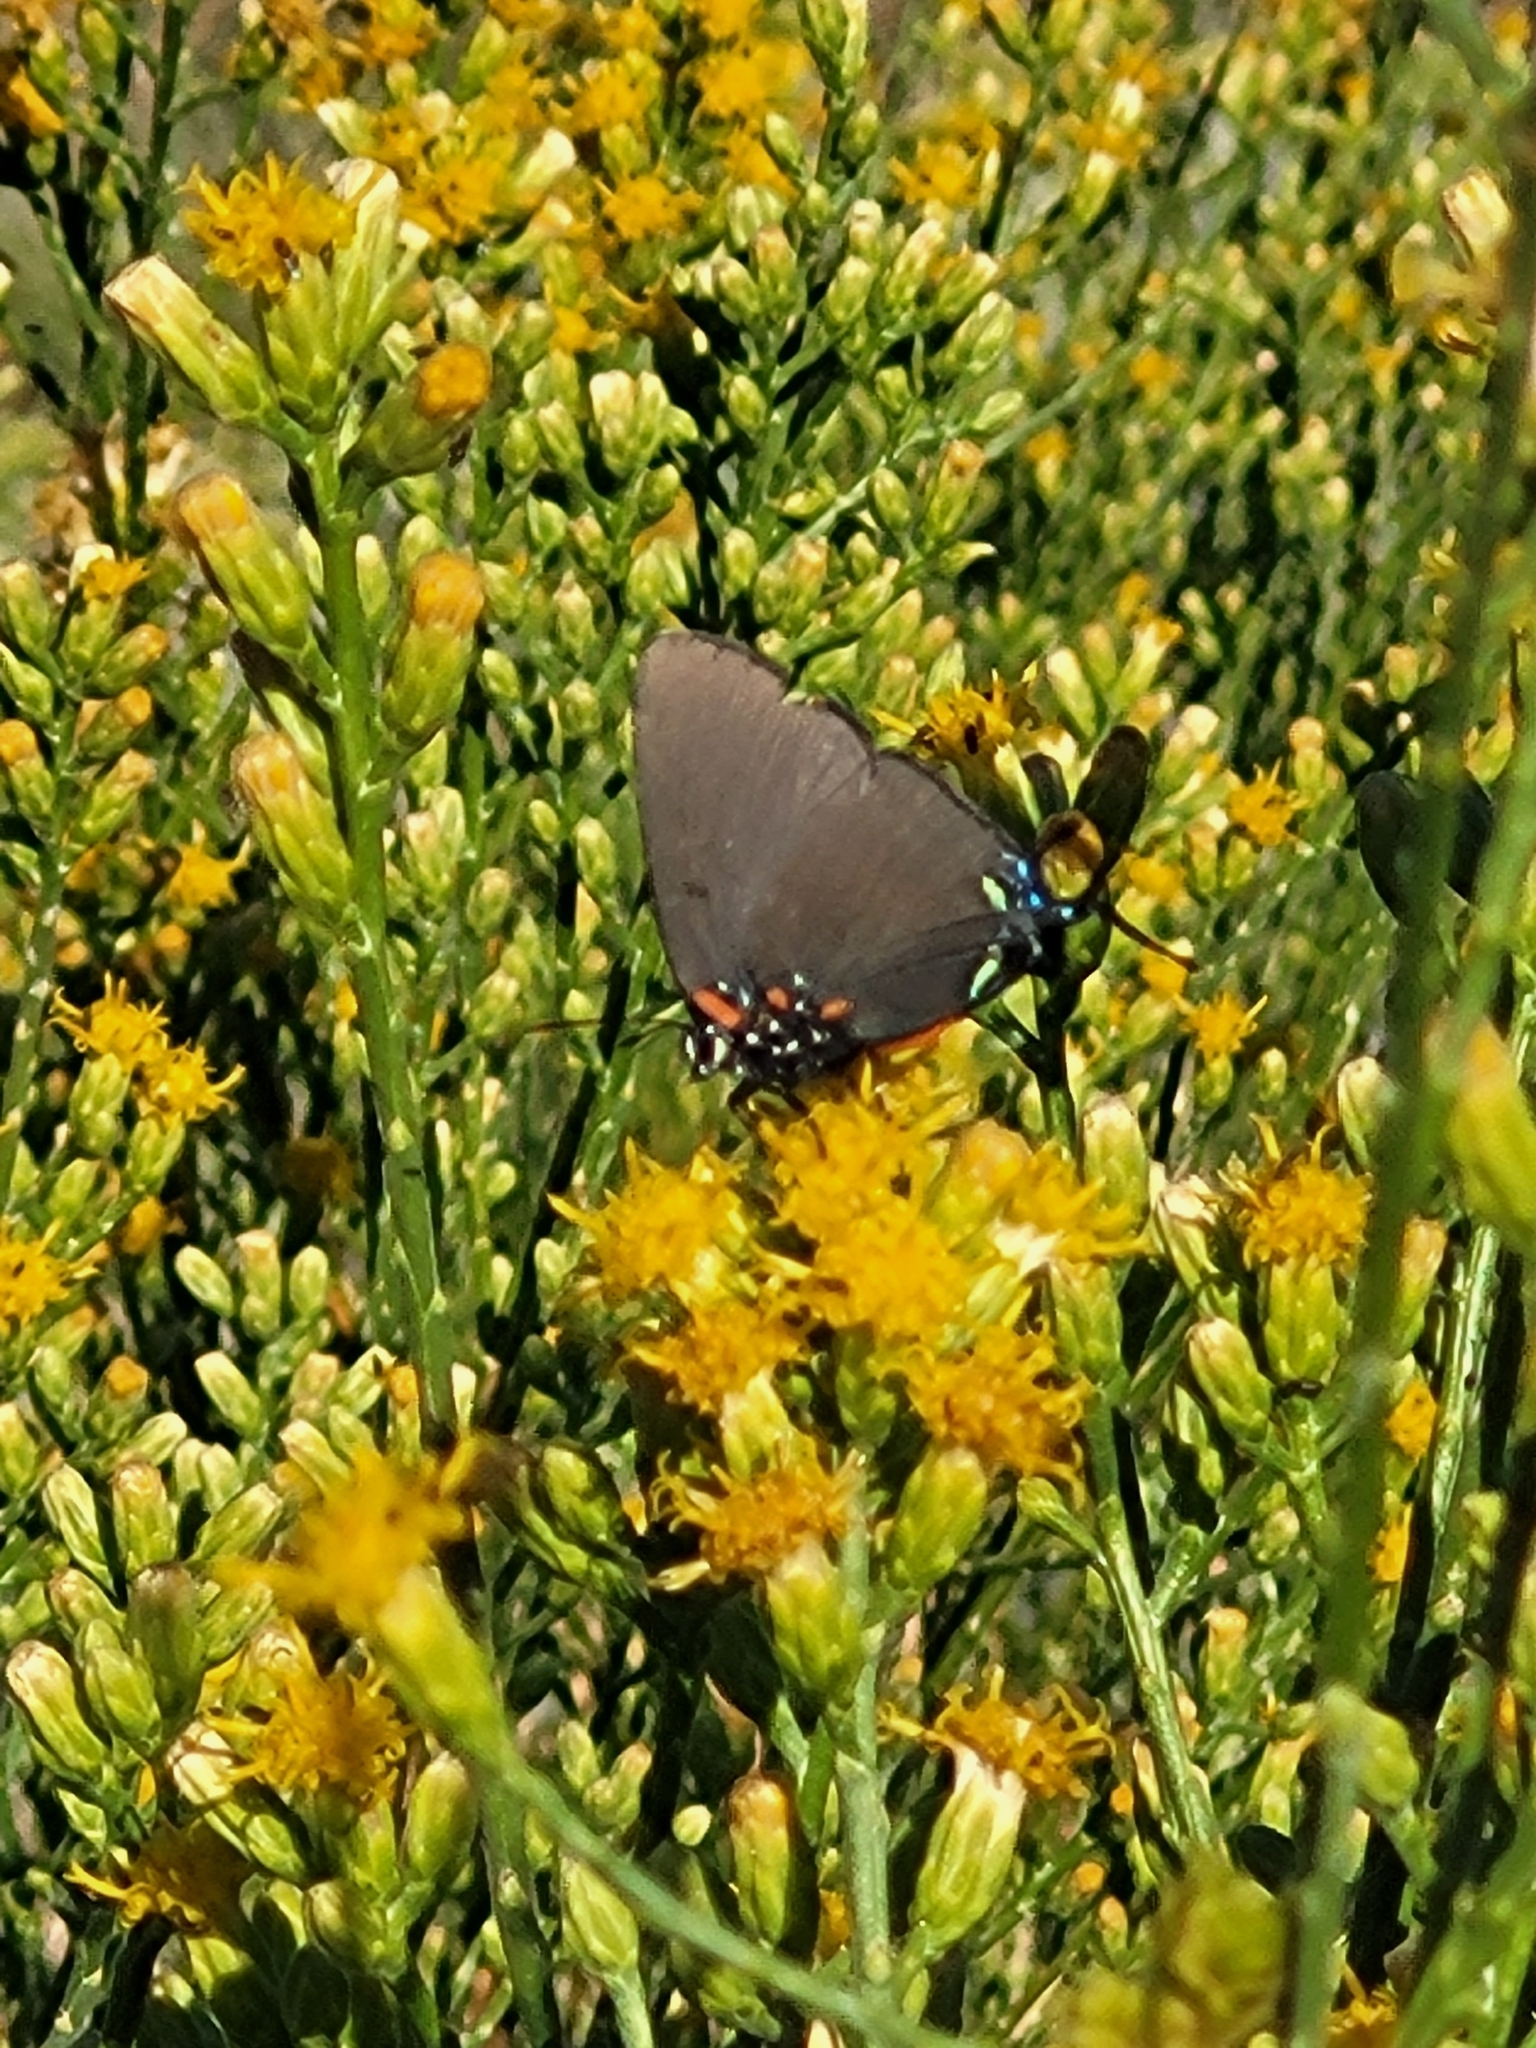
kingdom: Animalia
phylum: Arthropoda
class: Insecta
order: Lepidoptera
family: Lycaenidae
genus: Atlides
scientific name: Atlides halesus
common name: Great purple hairstreak
